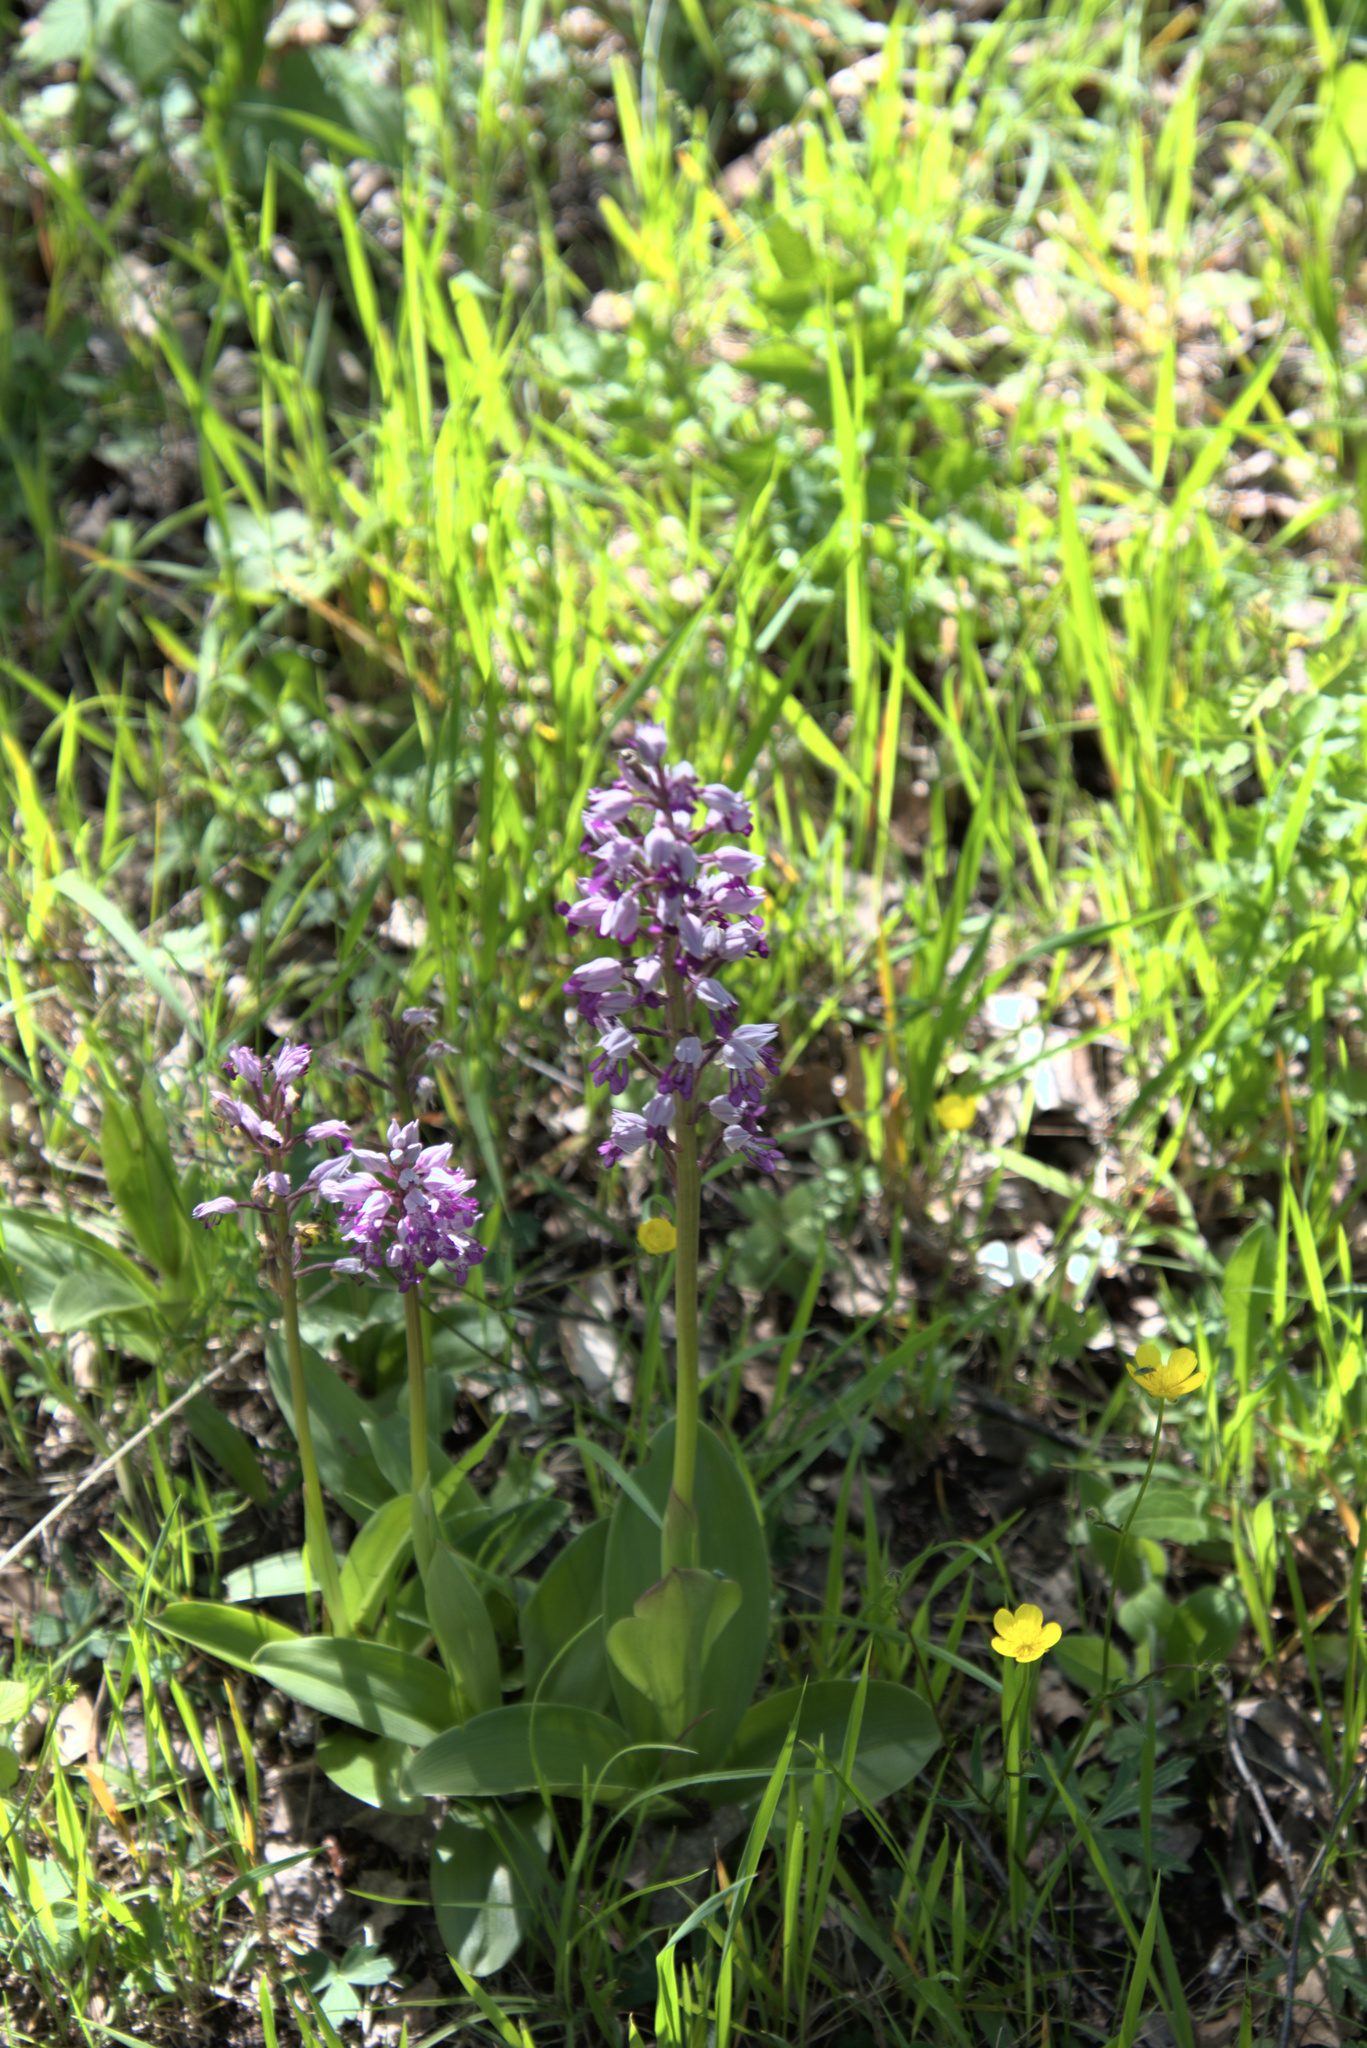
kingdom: Plantae
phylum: Tracheophyta
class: Liliopsida
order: Asparagales
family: Orchidaceae
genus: Orchis
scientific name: Orchis militaris
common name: Military orchid
